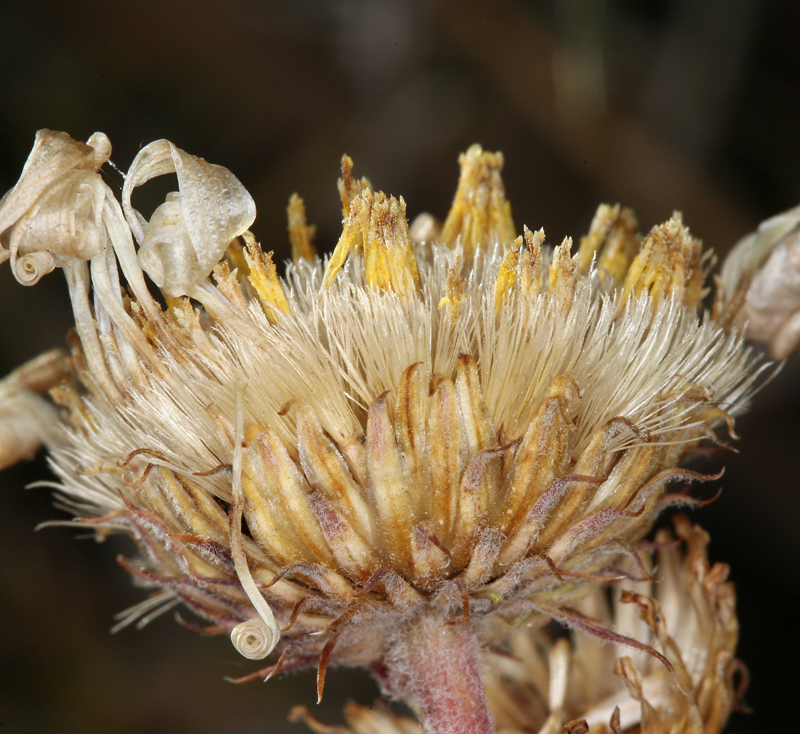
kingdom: Plantae
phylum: Tracheophyta
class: Magnoliopsida
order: Asterales
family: Asteraceae
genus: Xylorhiza
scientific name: Xylorhiza tortifolia
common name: Hurt-leaf woody-aster
